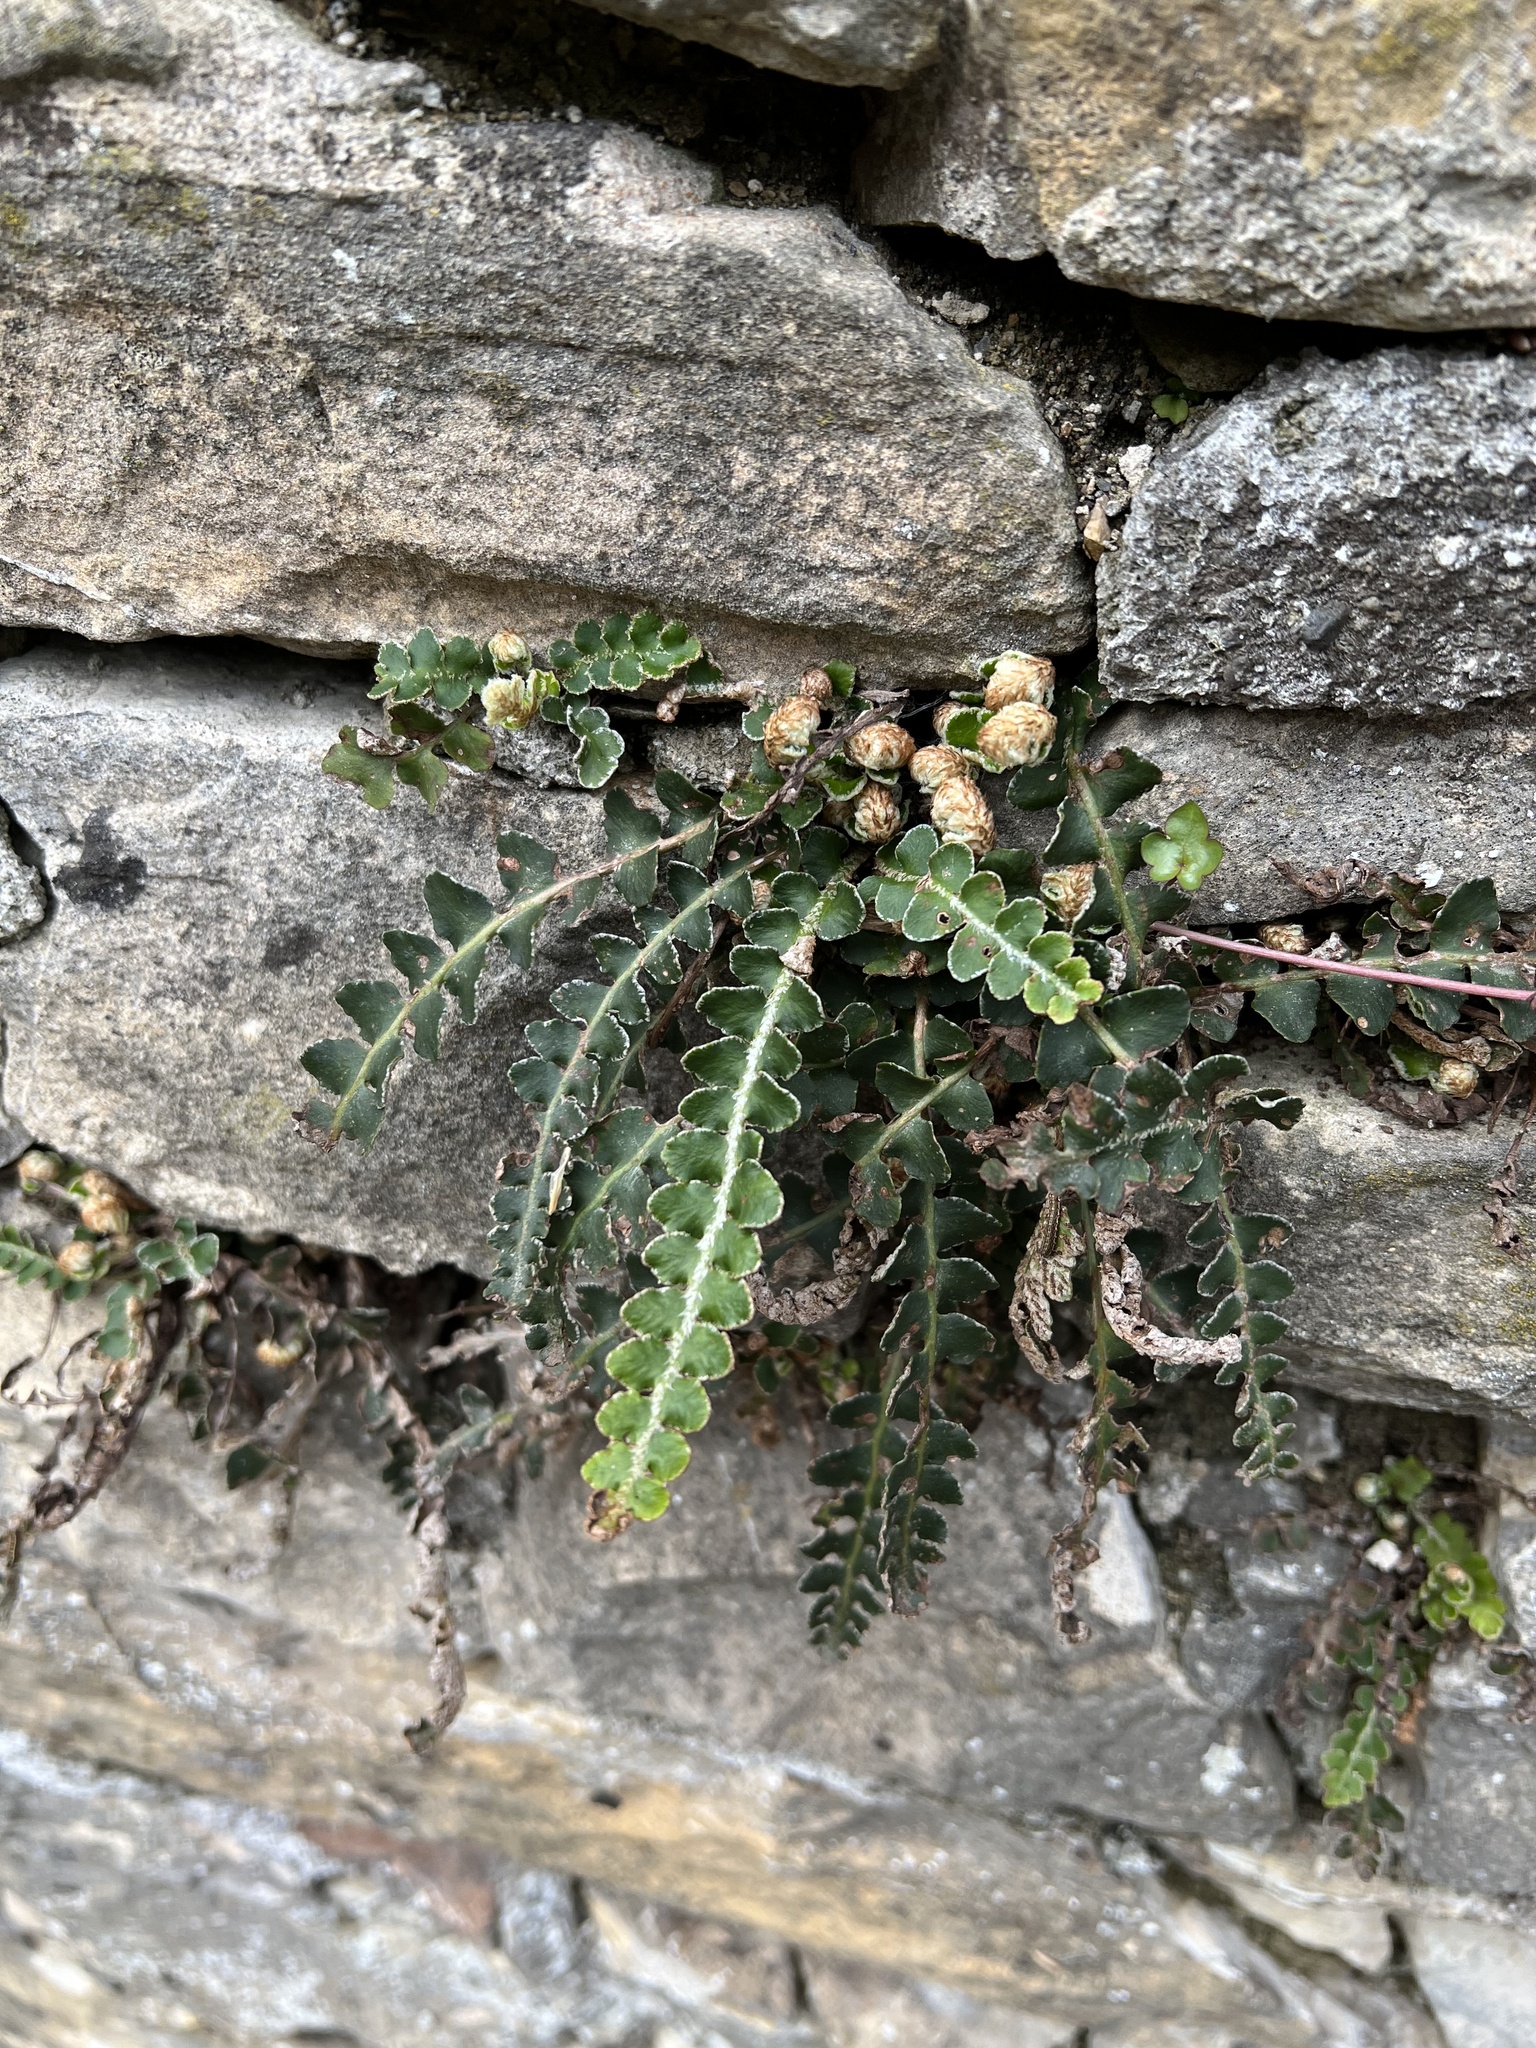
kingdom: Plantae
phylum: Tracheophyta
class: Polypodiopsida
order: Polypodiales
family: Aspleniaceae
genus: Asplenium
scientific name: Asplenium ceterach
